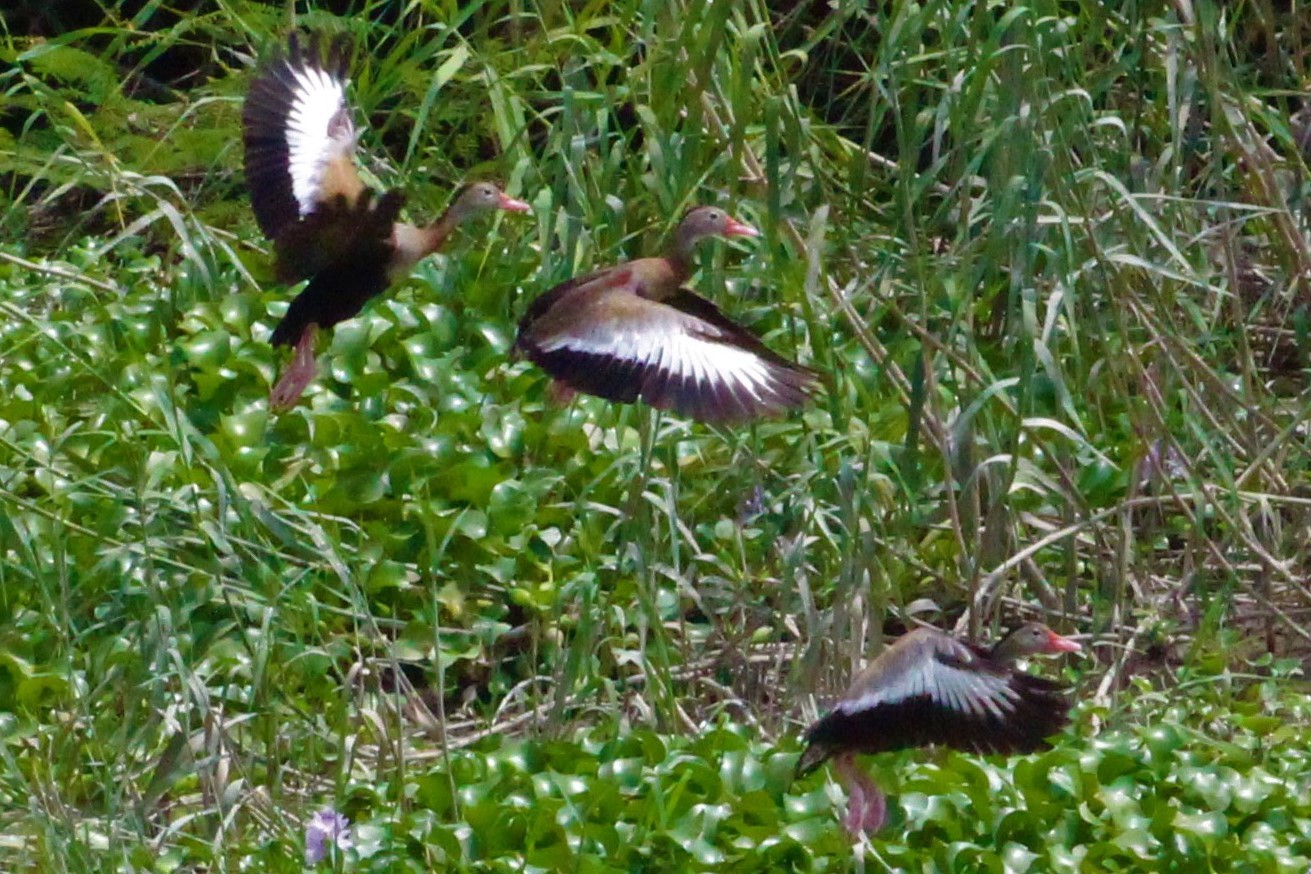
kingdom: Animalia
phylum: Chordata
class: Aves
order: Anseriformes
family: Anatidae
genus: Dendrocygna
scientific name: Dendrocygna autumnalis
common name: Black-bellied whistling duck
